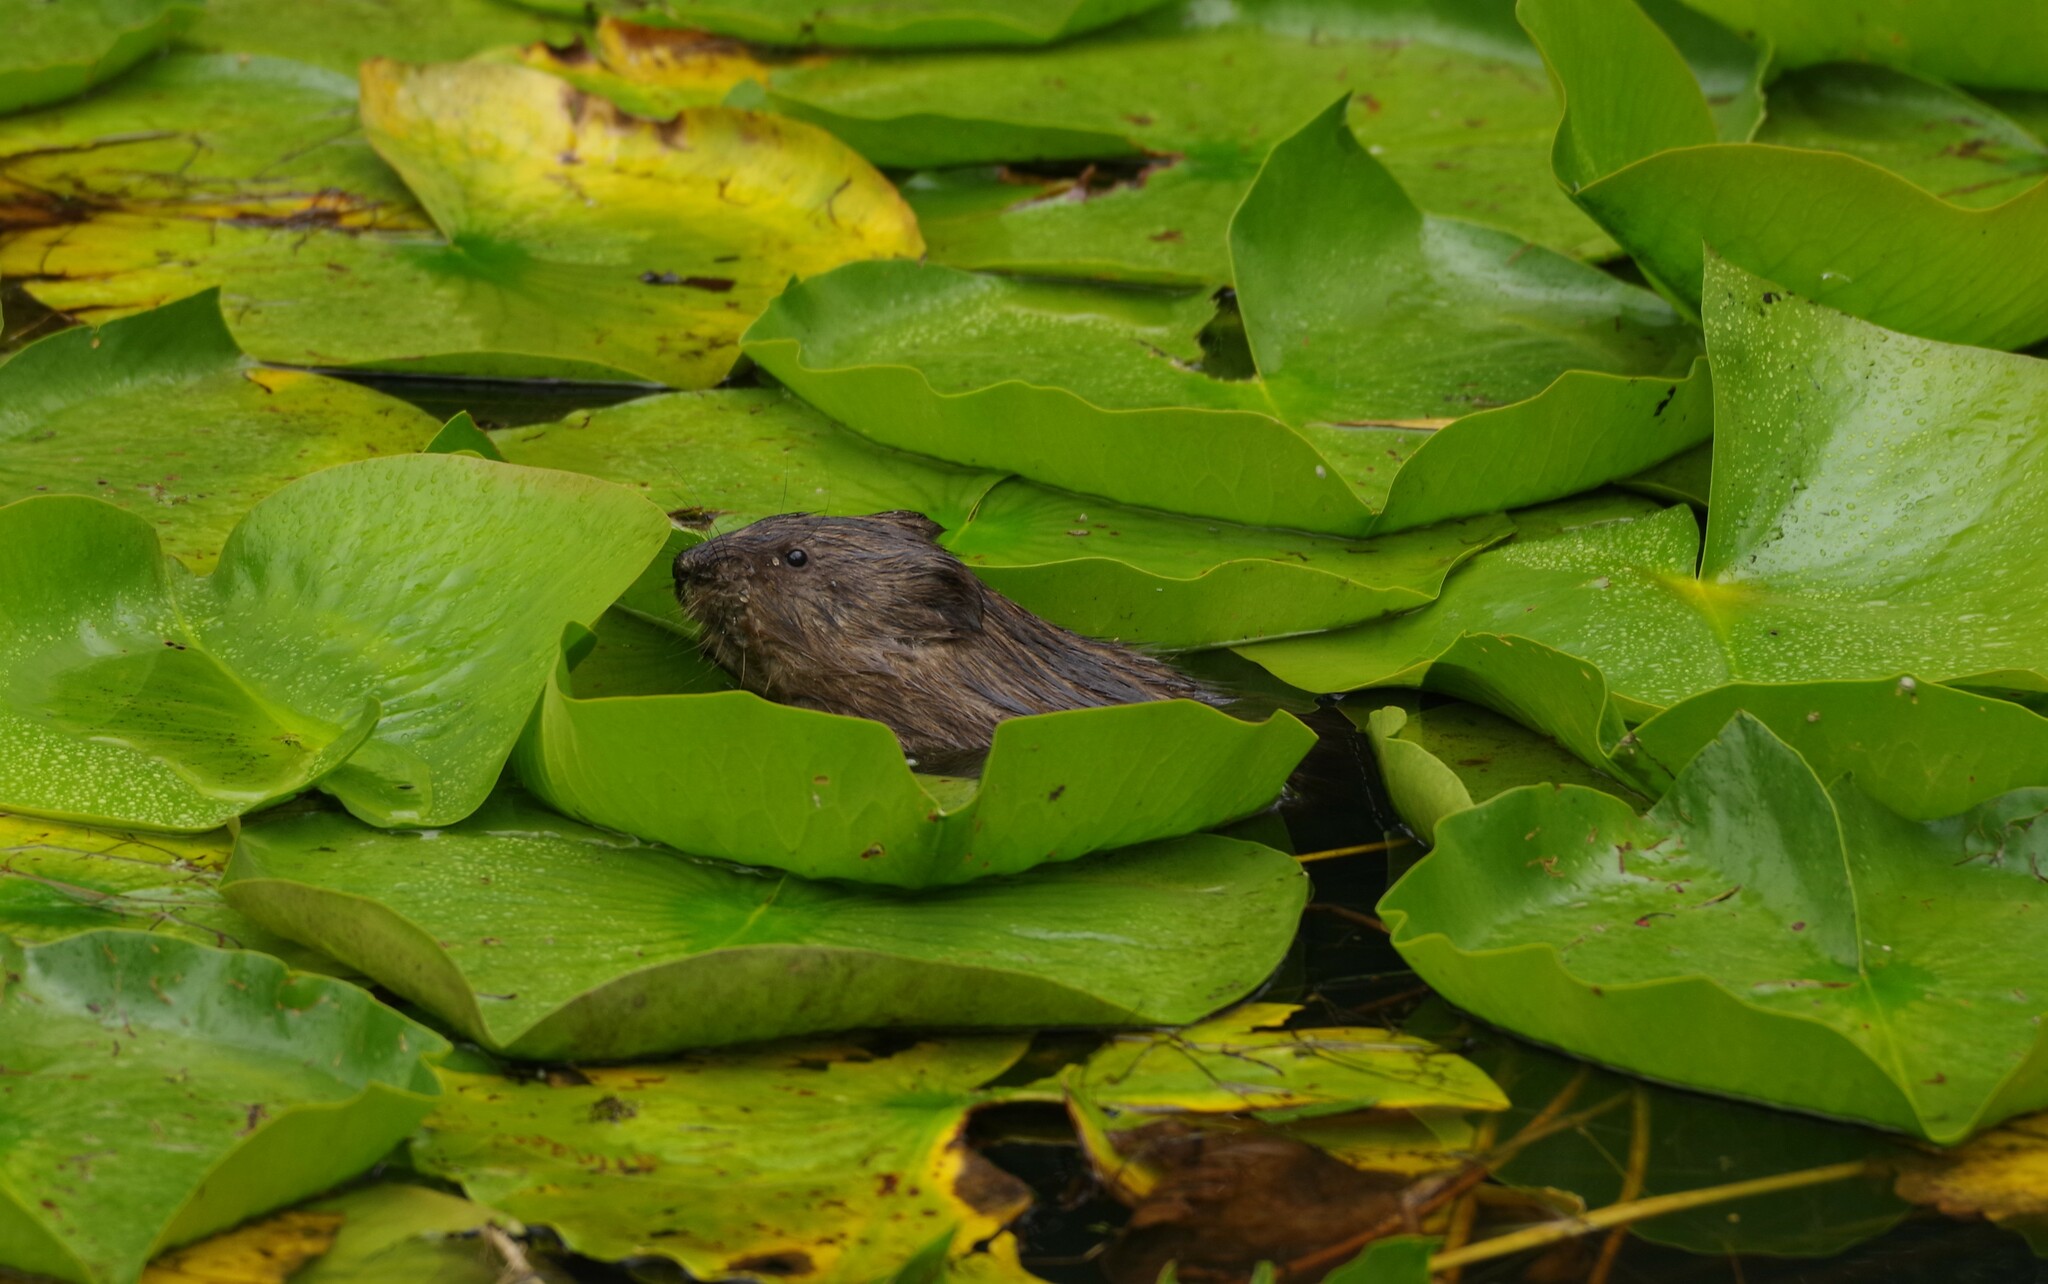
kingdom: Animalia
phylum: Chordata
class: Mammalia
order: Rodentia
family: Cricetidae
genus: Ondatra
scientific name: Ondatra zibethicus
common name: Muskrat
